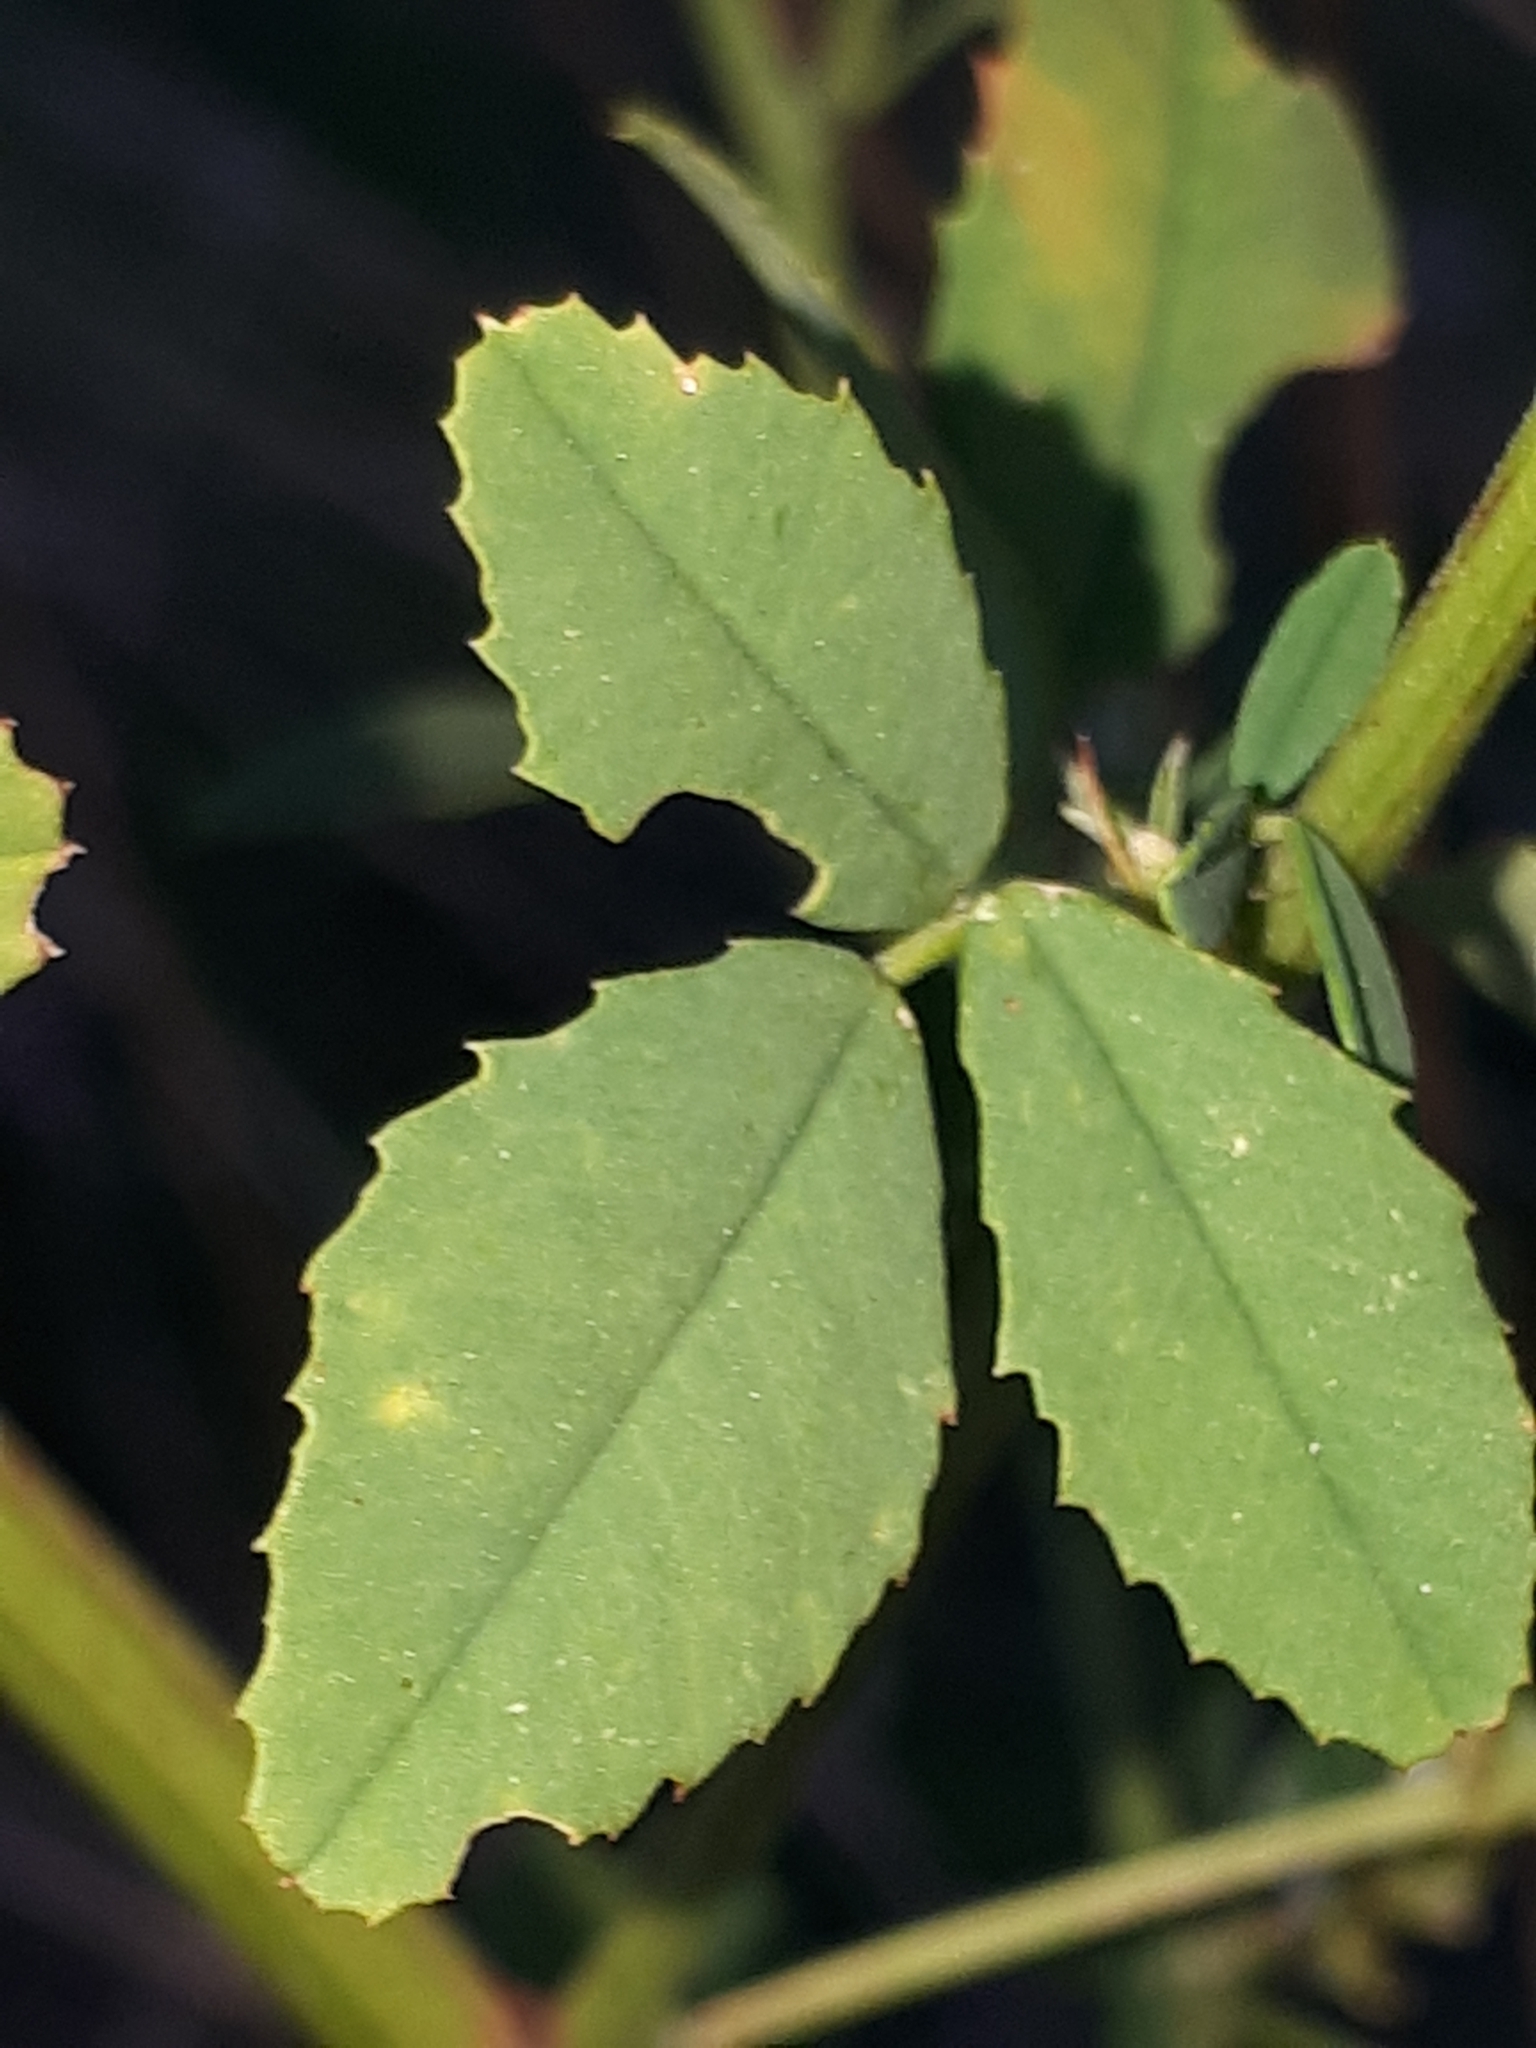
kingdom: Plantae
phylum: Tracheophyta
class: Magnoliopsida
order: Fabales
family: Fabaceae
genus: Melilotus
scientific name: Melilotus albus
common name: White melilot
